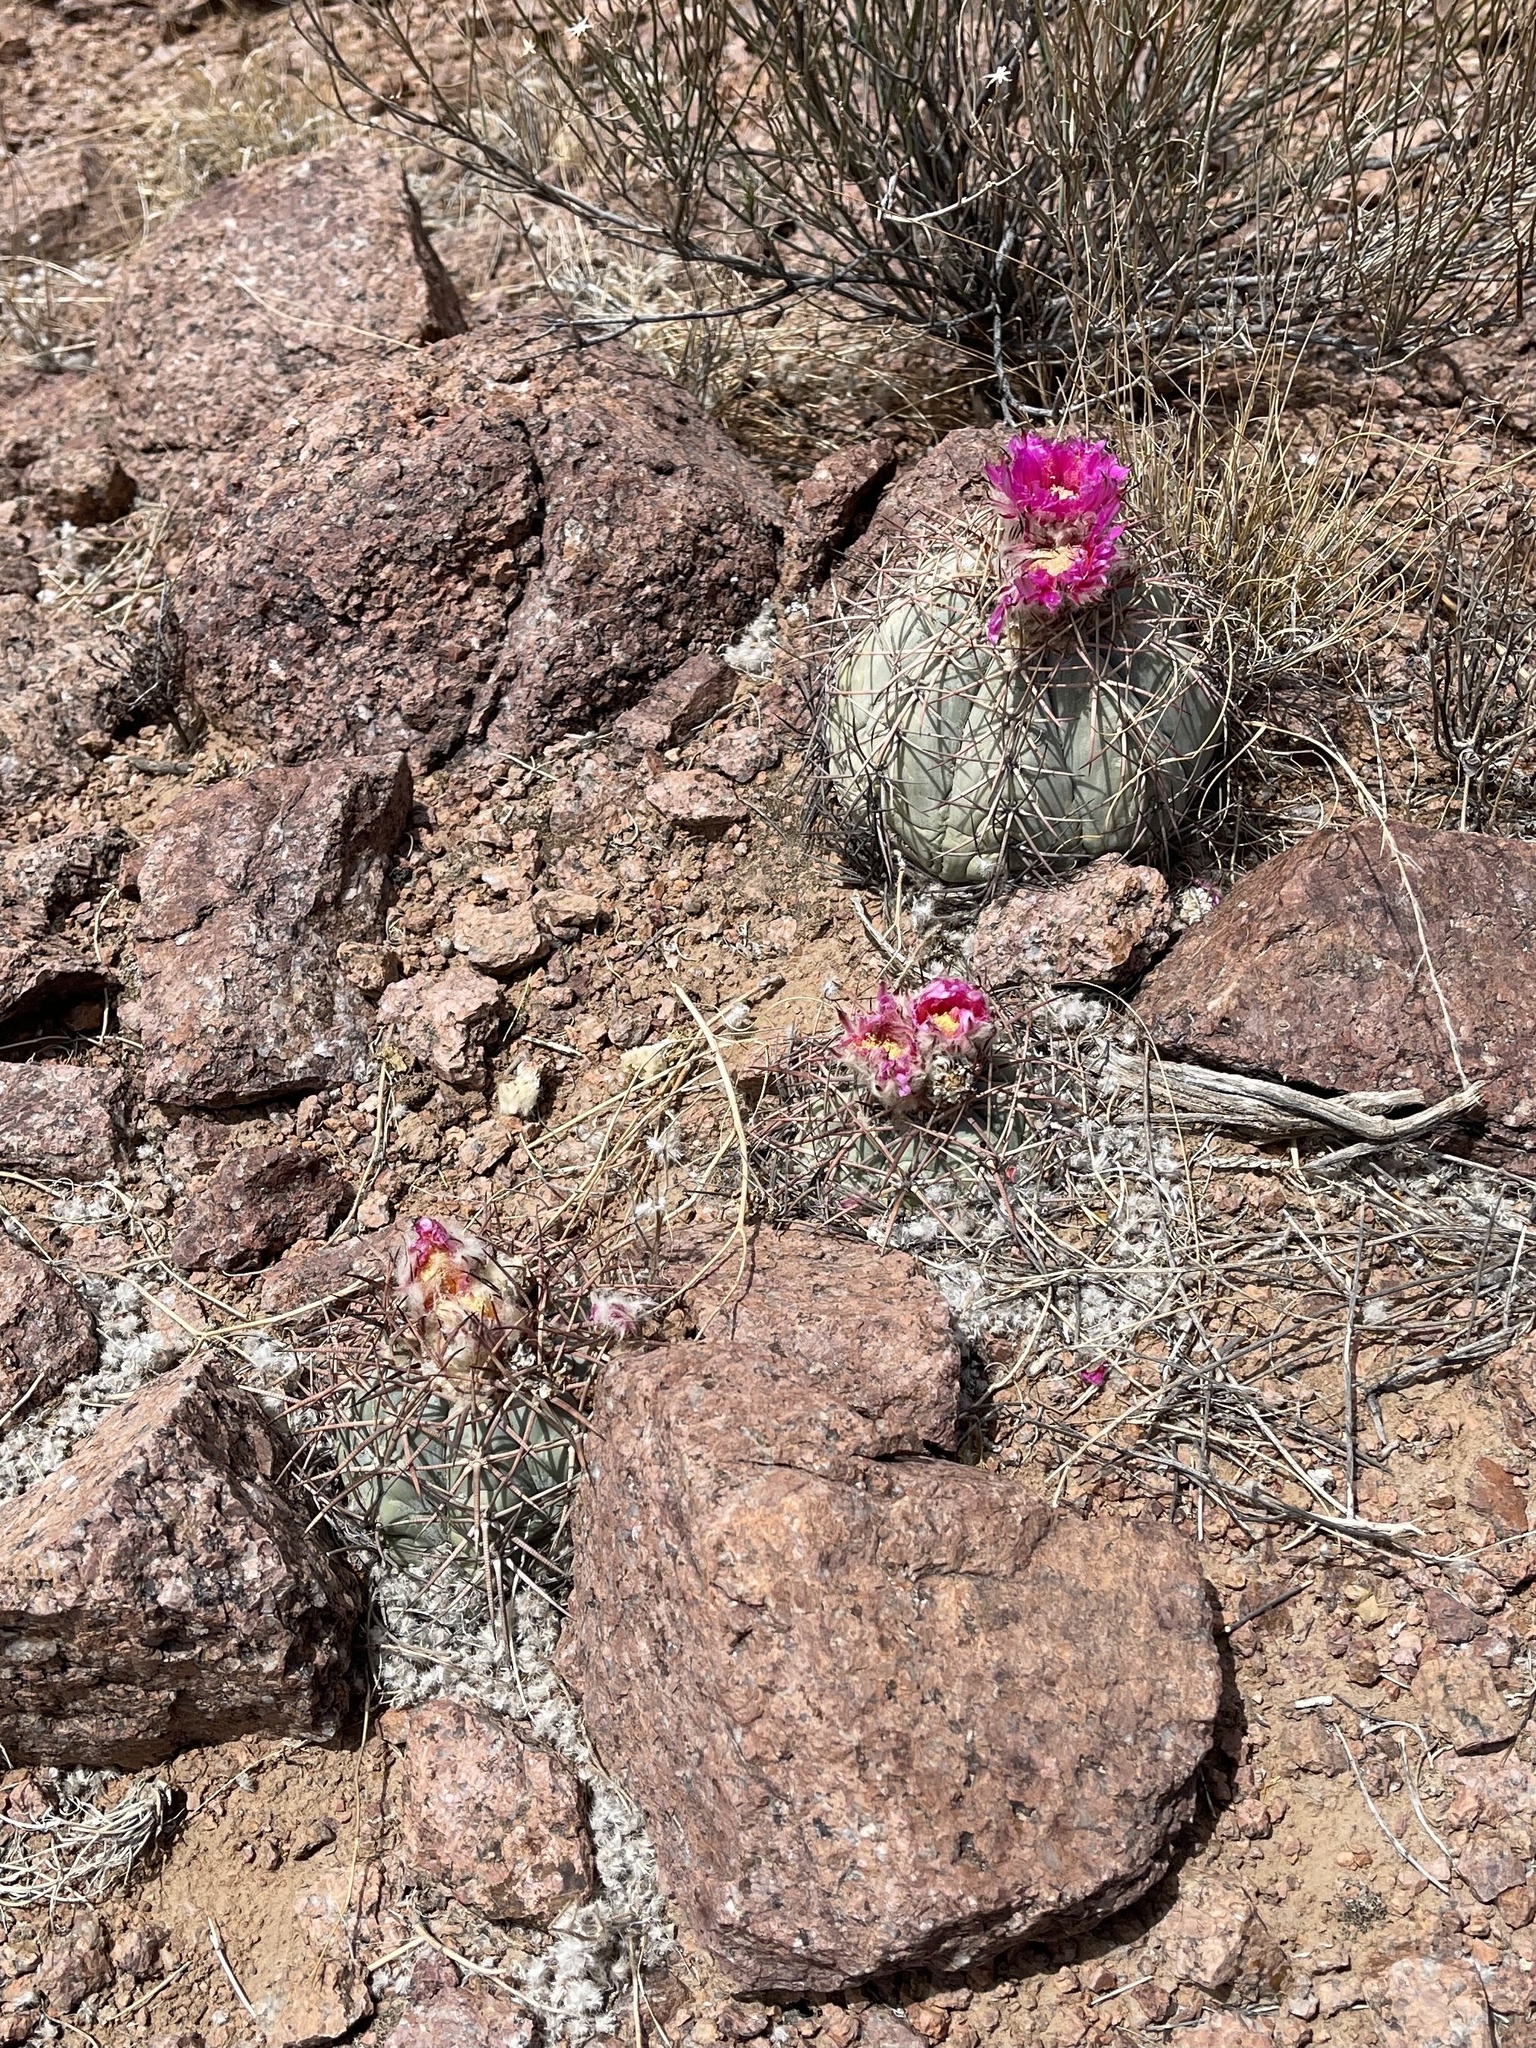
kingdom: Plantae
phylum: Tracheophyta
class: Magnoliopsida
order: Caryophyllales
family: Cactaceae
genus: Echinocactus
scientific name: Echinocactus horizonthalonius
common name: Devilshead
